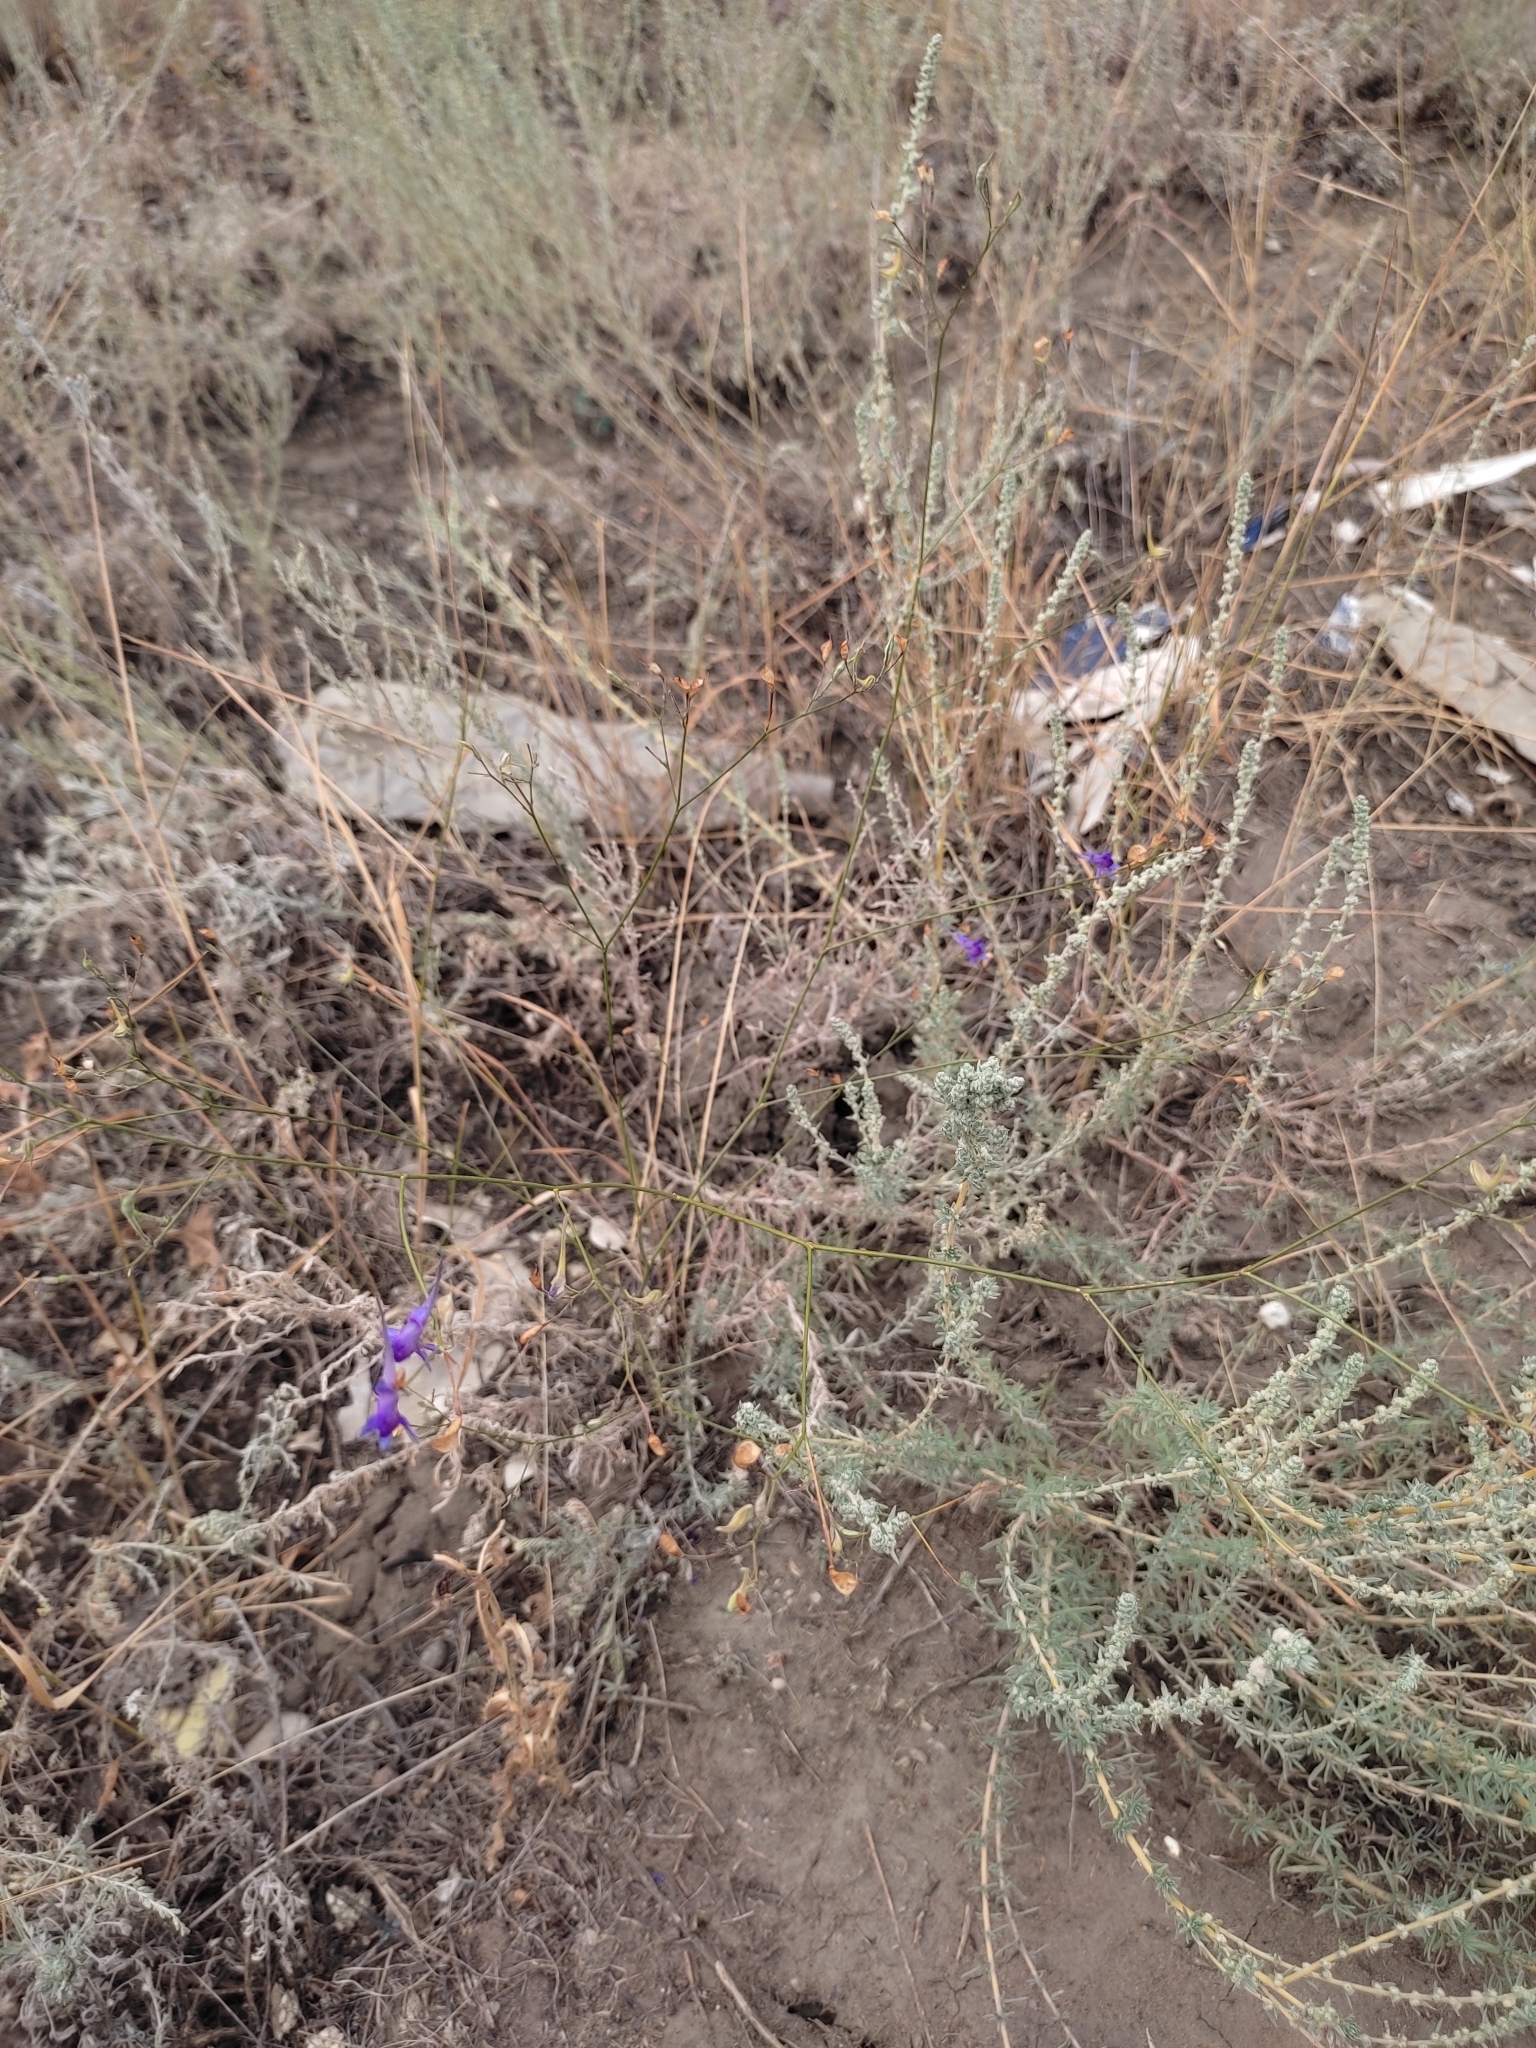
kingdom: Plantae
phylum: Tracheophyta
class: Magnoliopsida
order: Ranunculales
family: Ranunculaceae
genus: Delphinium
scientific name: Delphinium consolida
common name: Branching larkspur
